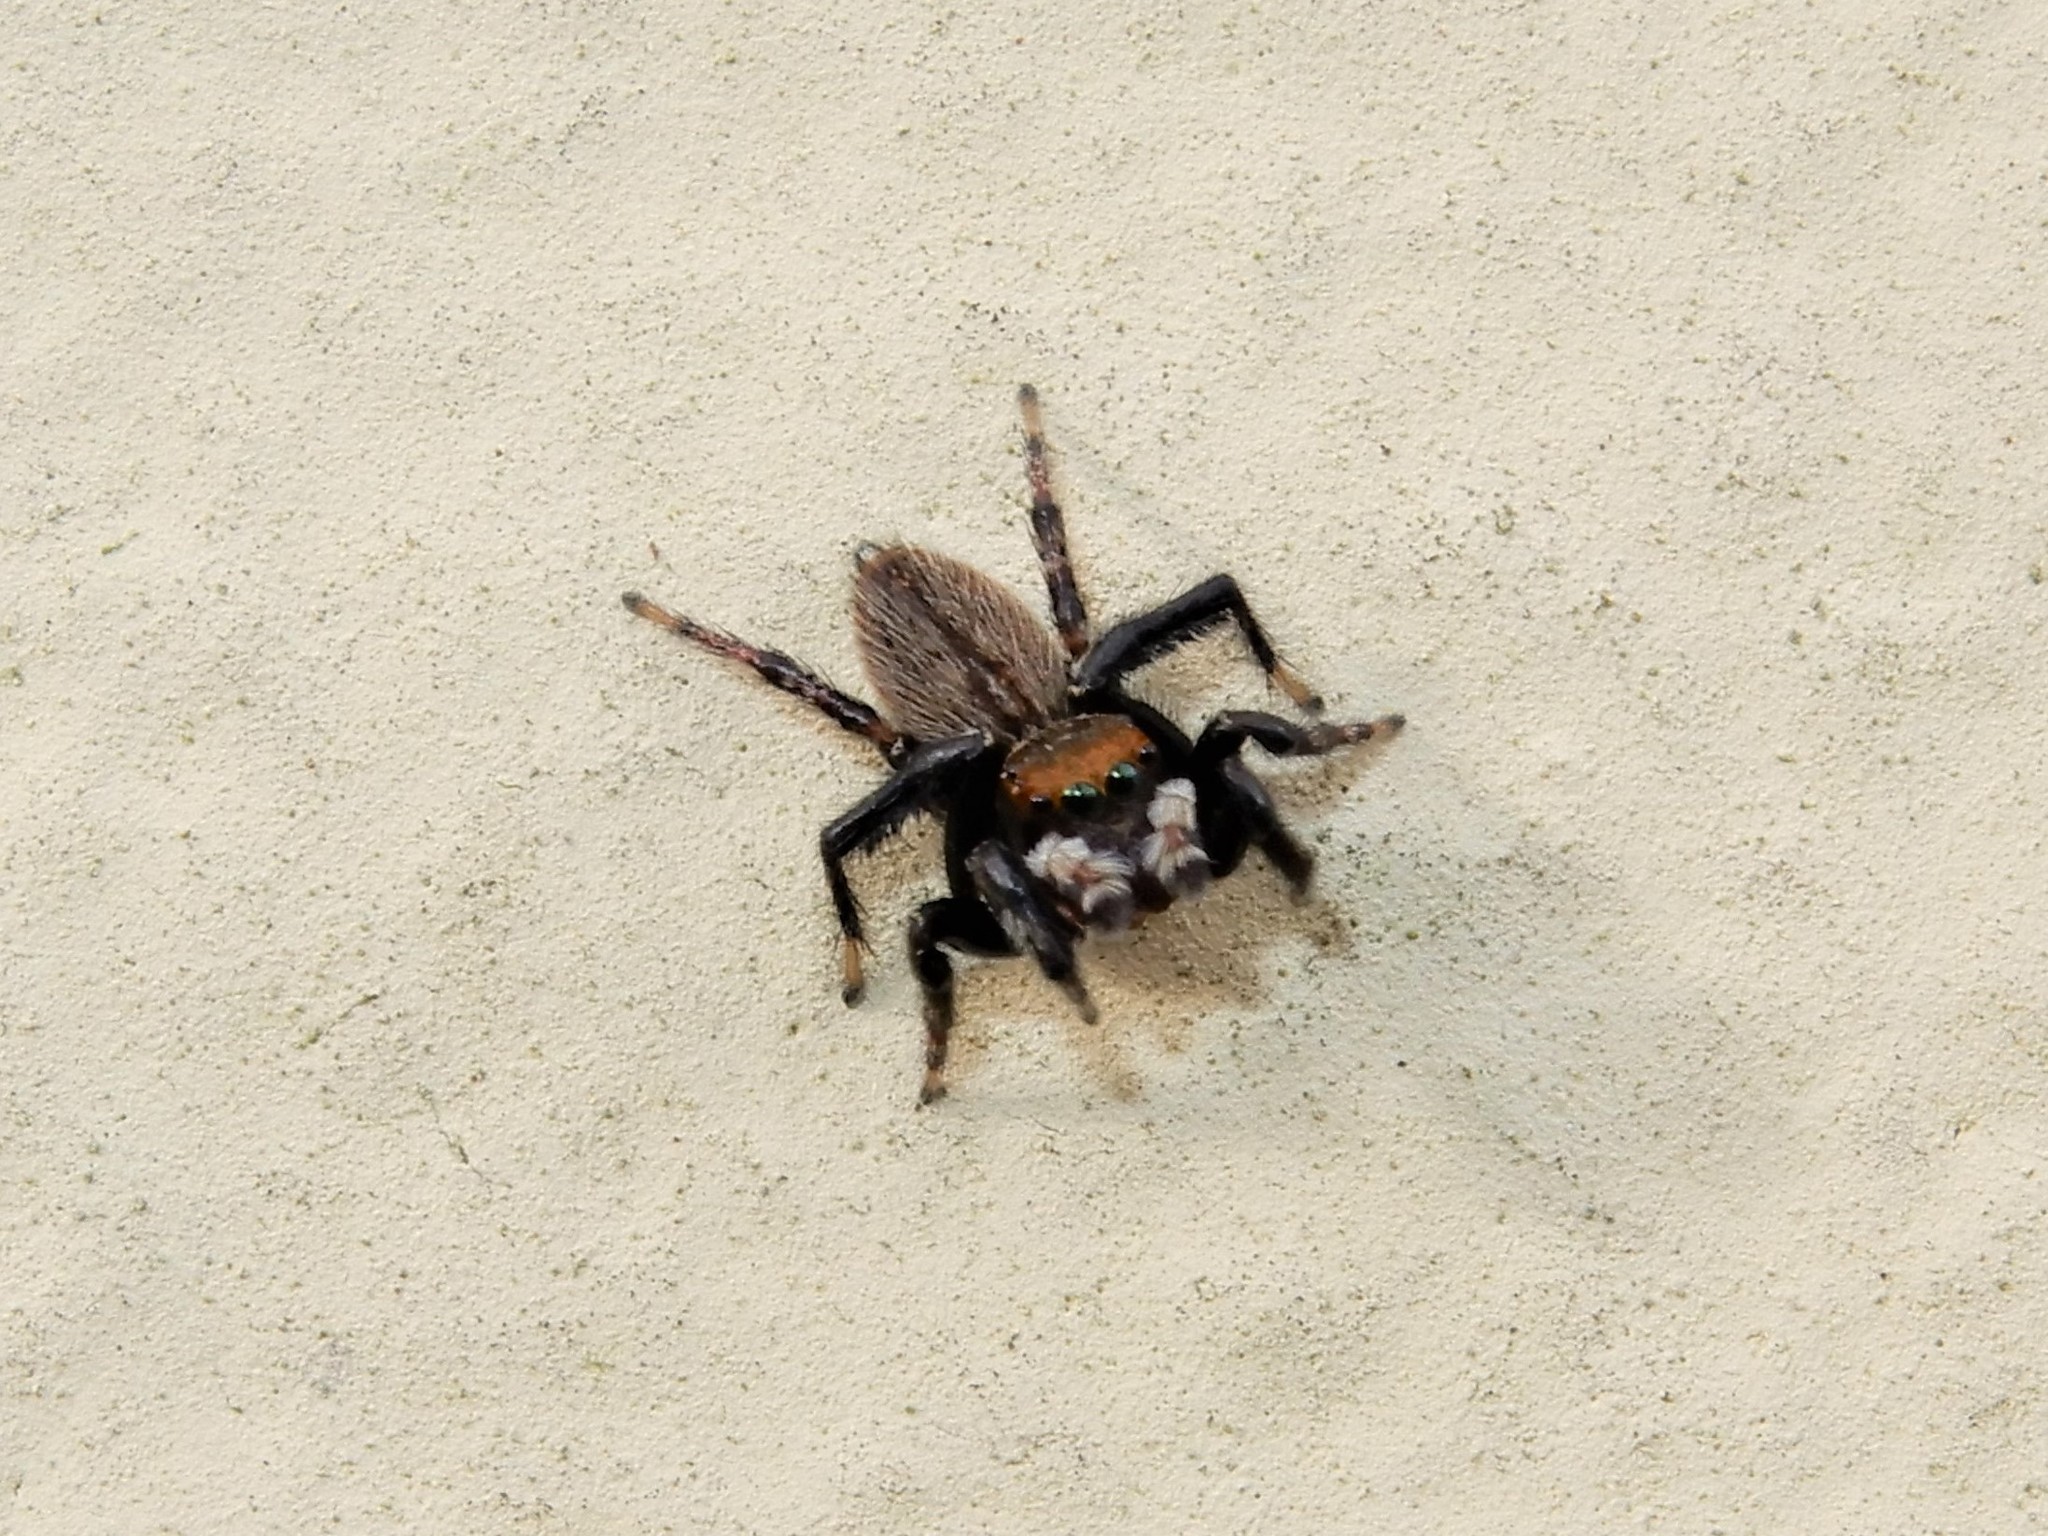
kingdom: Animalia
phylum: Arthropoda
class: Arachnida
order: Araneae
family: Salticidae
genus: Maratus
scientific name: Maratus griseus
